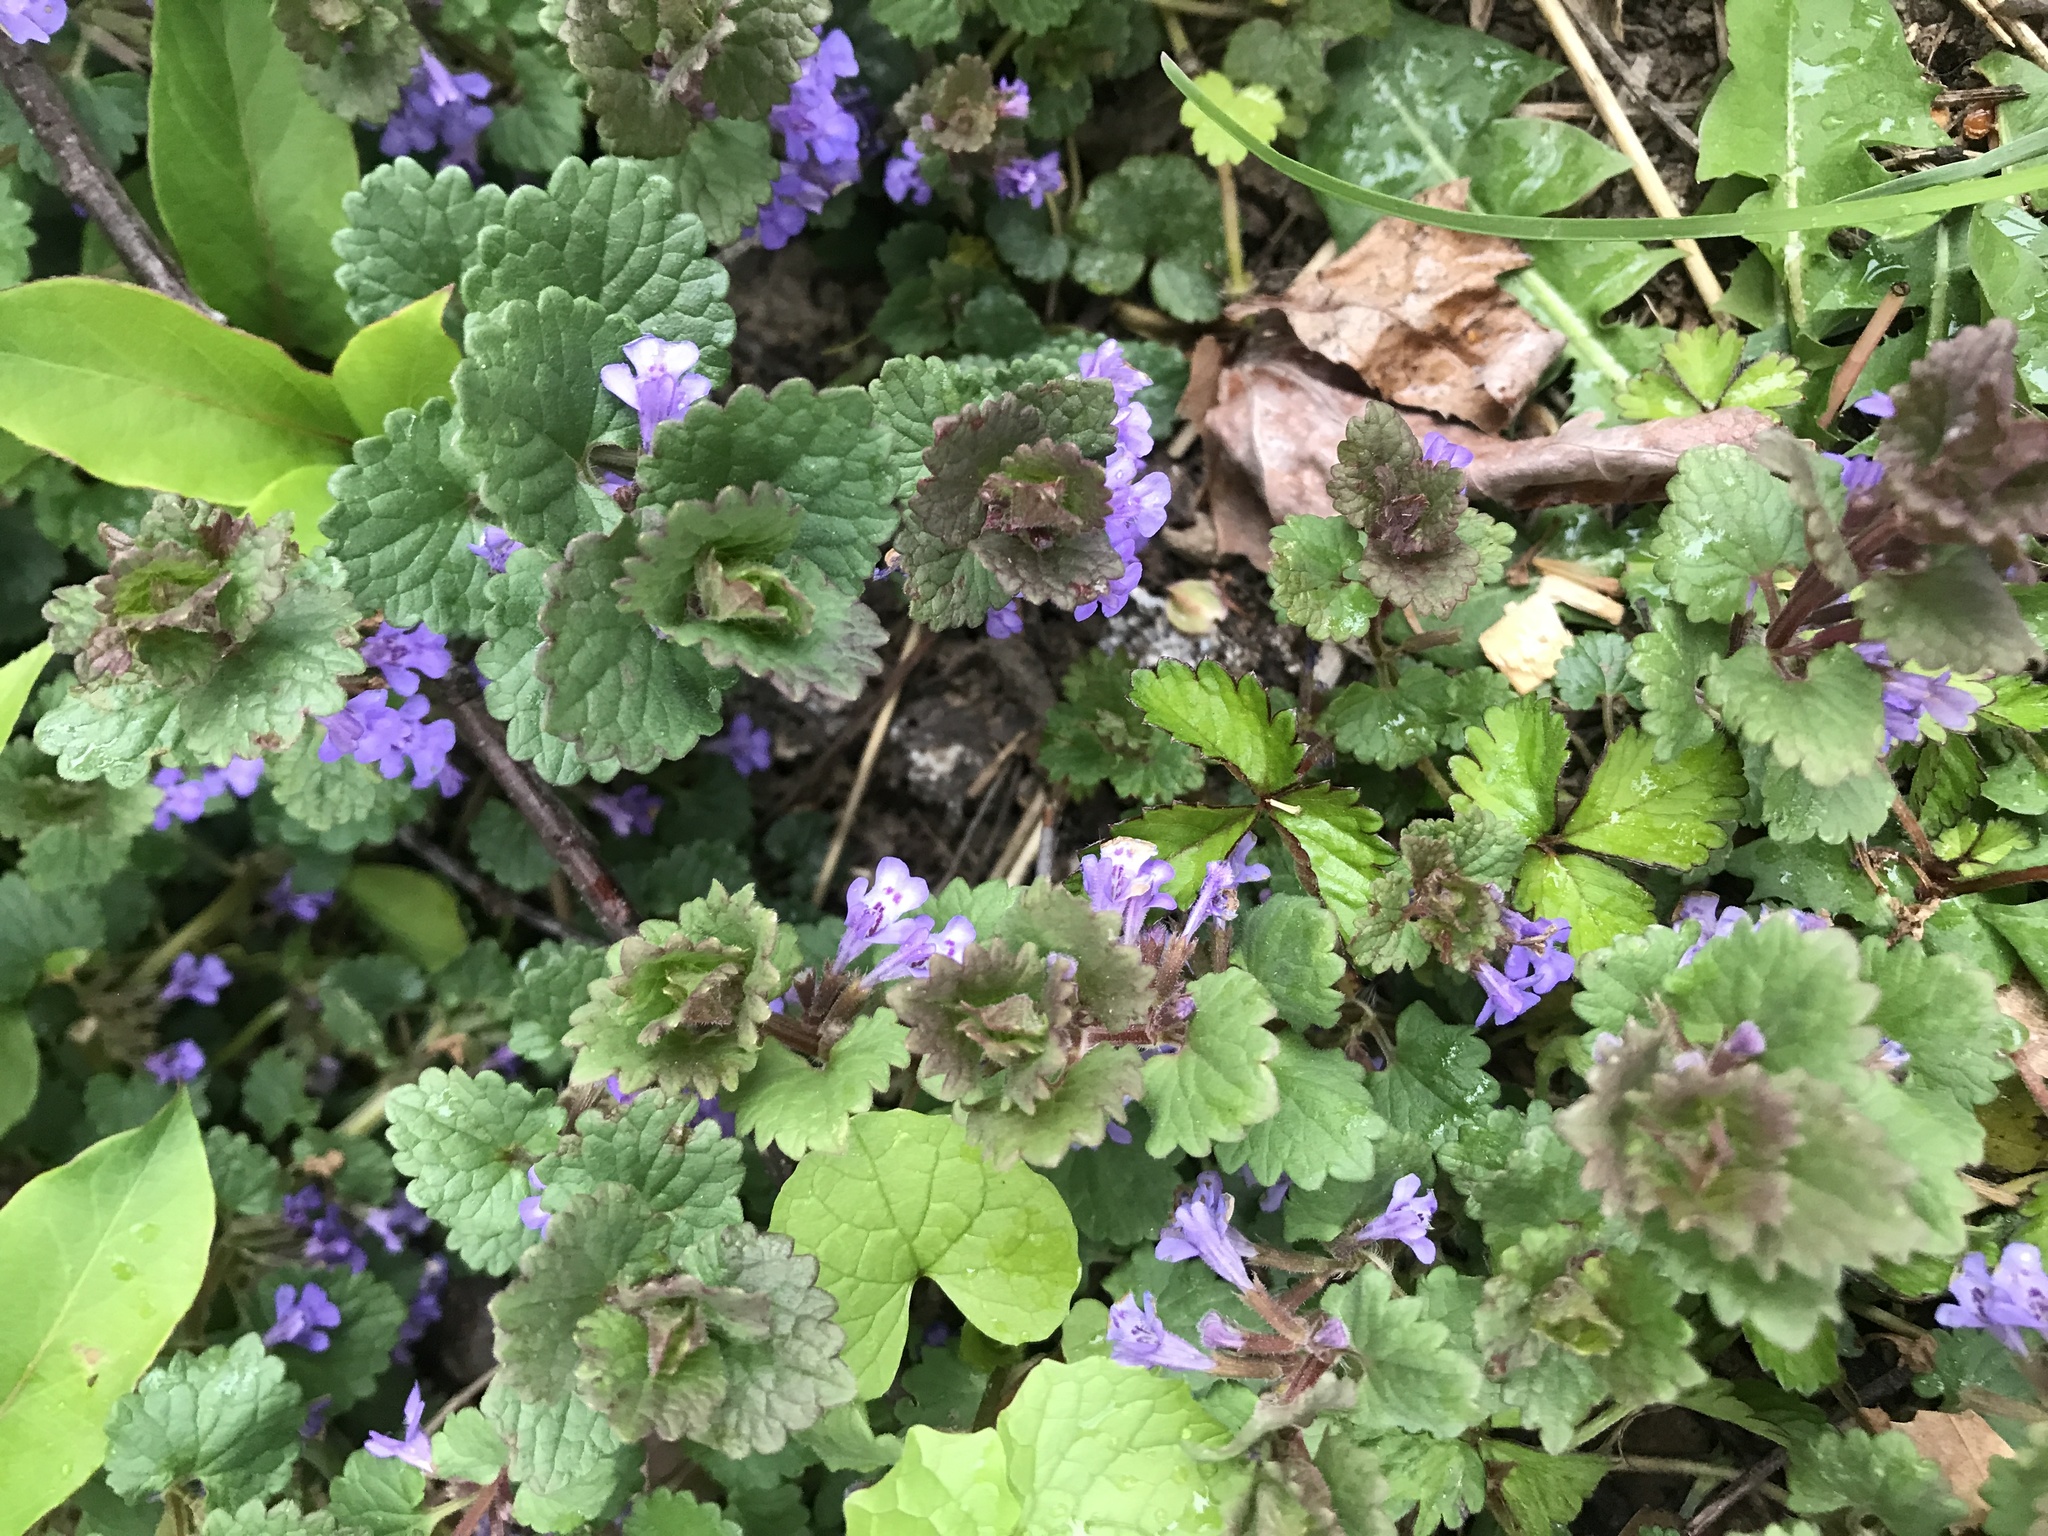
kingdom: Plantae
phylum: Tracheophyta
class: Magnoliopsida
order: Lamiales
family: Lamiaceae
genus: Glechoma
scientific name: Glechoma hederacea
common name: Ground ivy
